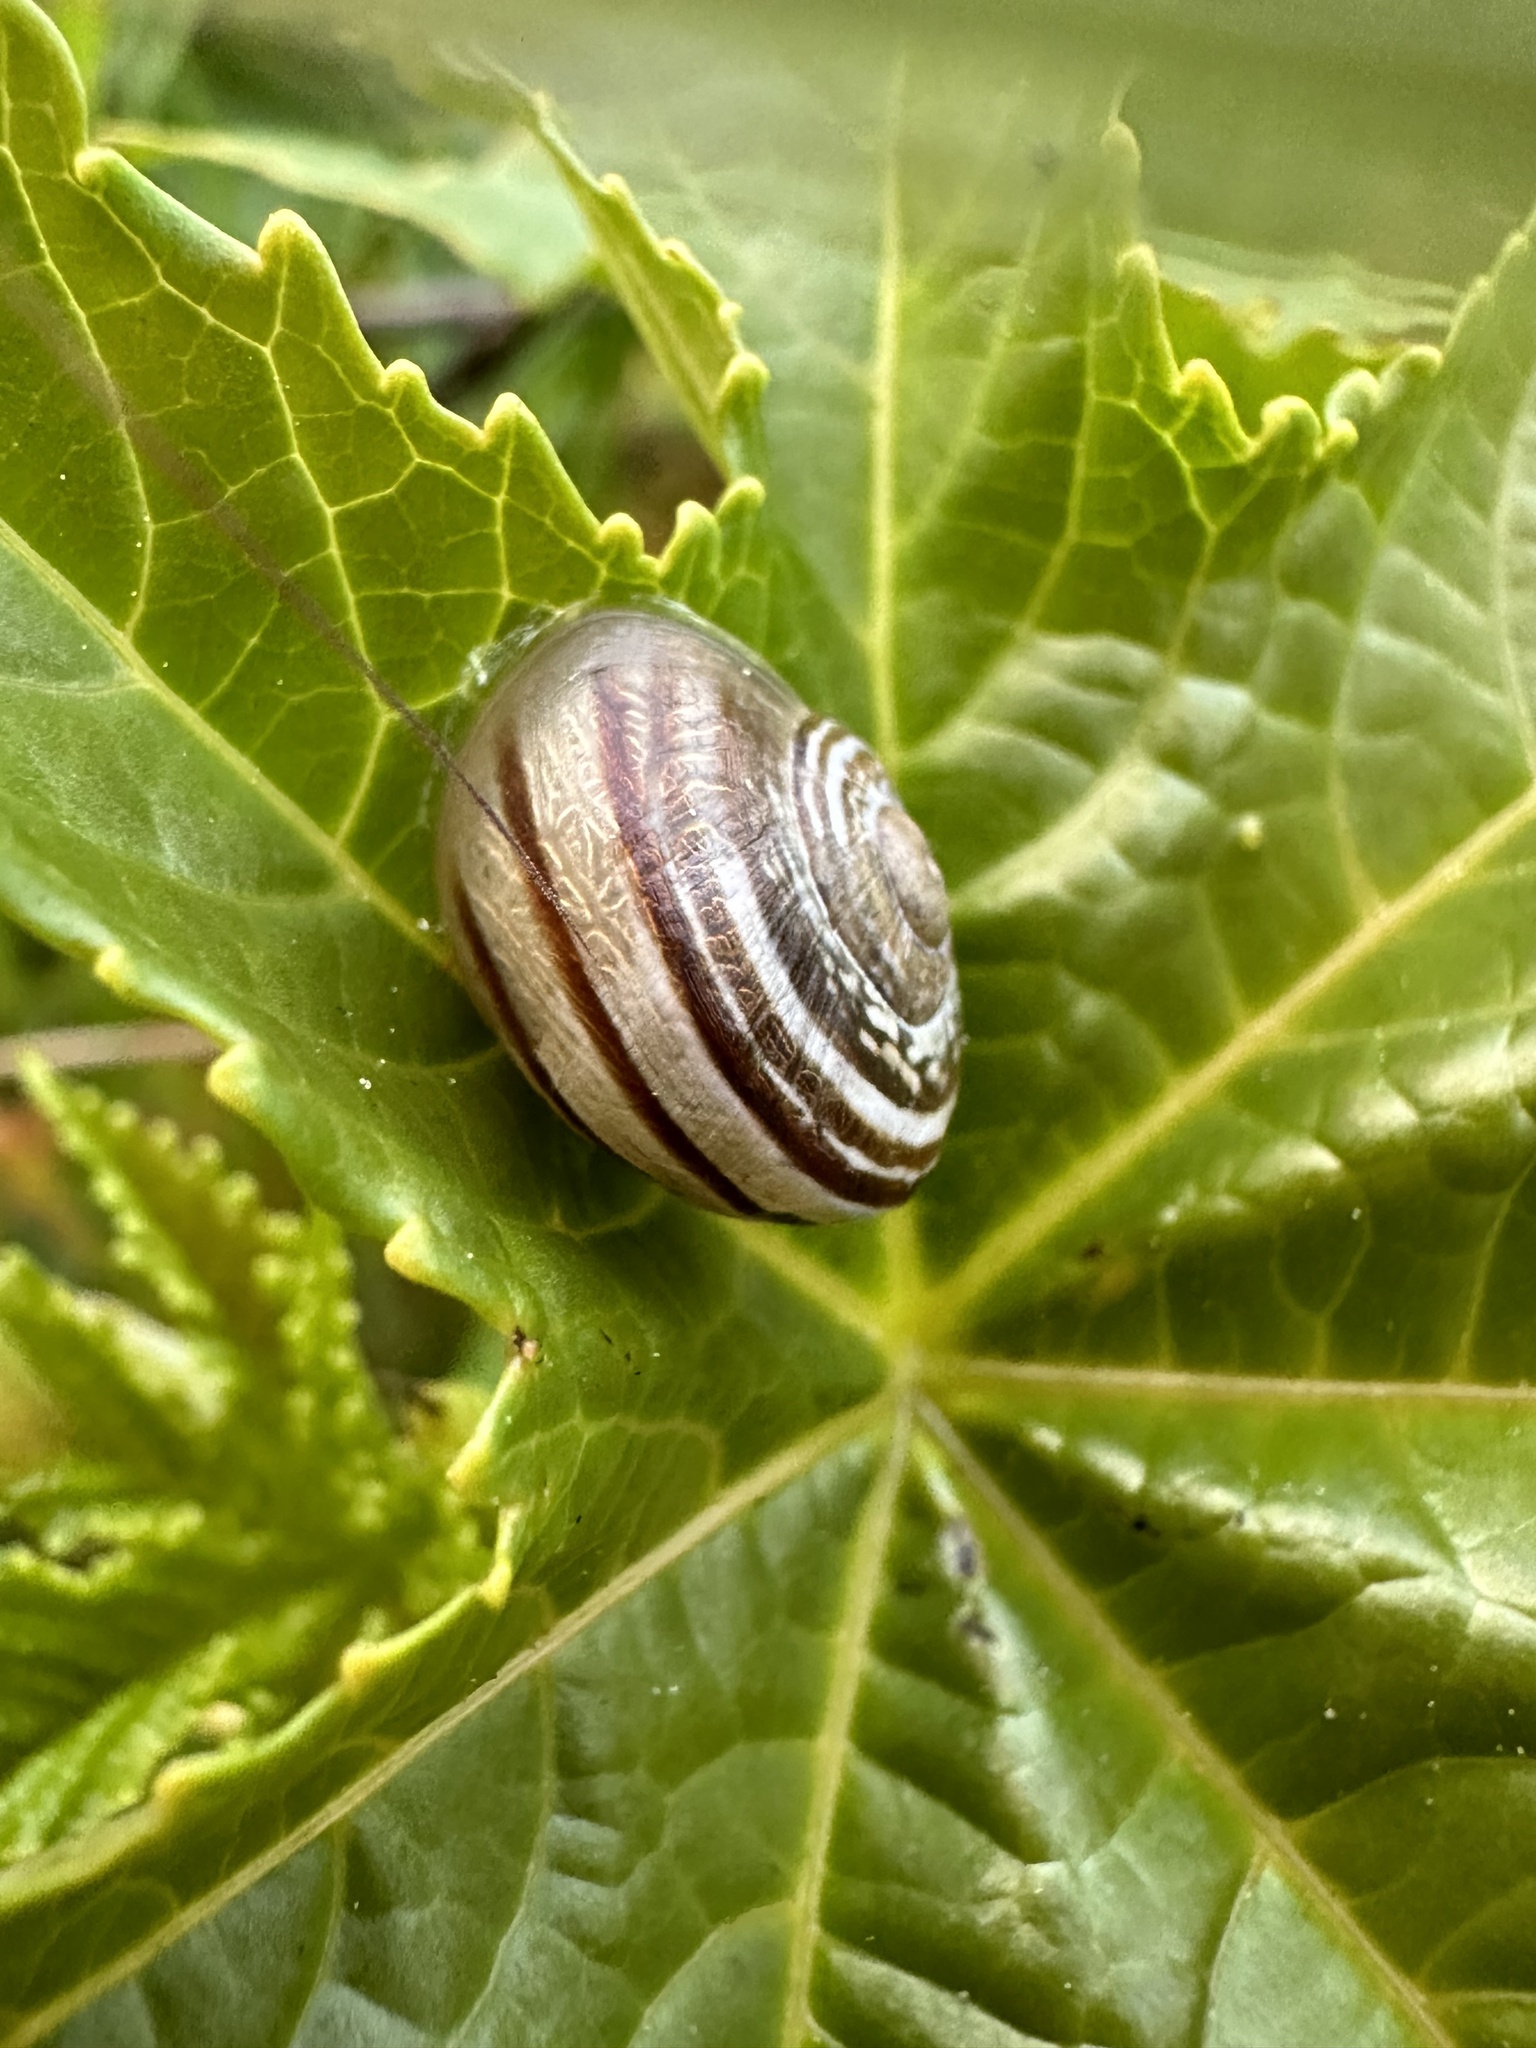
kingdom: Animalia
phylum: Mollusca
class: Gastropoda
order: Stylommatophora
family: Helicidae
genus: Otala
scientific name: Otala lactea
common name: Milk snail
